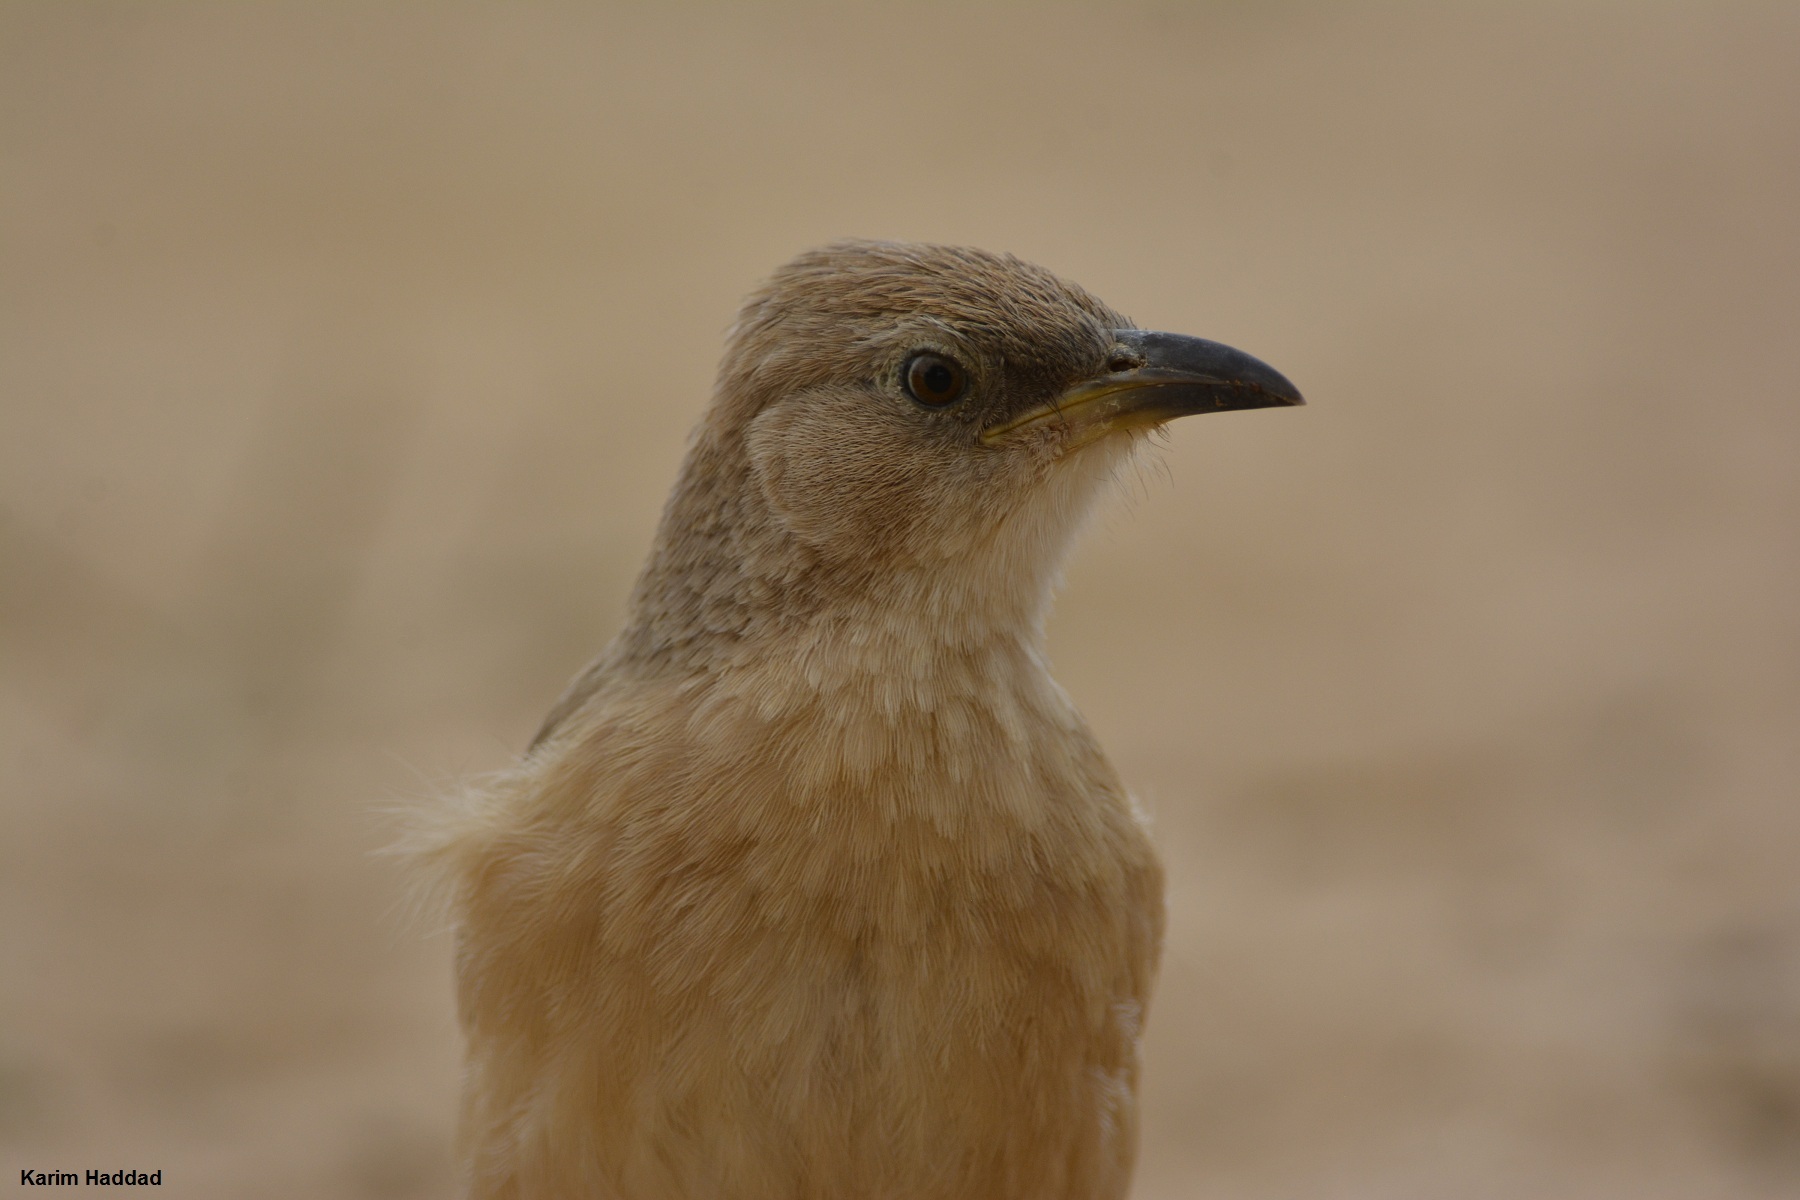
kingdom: Animalia
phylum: Chordata
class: Aves
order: Passeriformes
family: Leiothrichidae
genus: Turdoides
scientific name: Turdoides fulva
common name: Fulvous babbler
